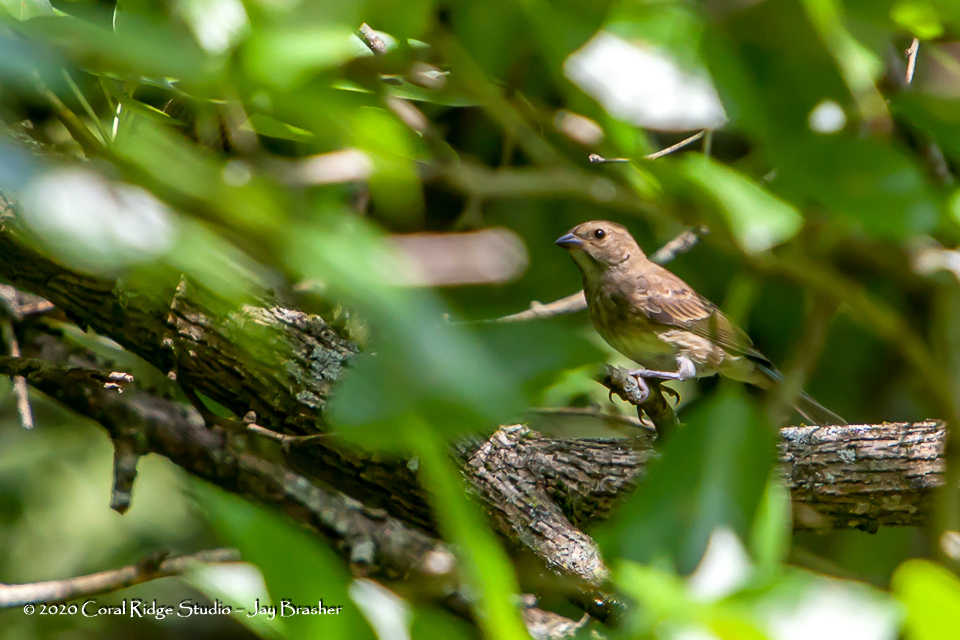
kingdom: Animalia
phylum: Chordata
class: Aves
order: Passeriformes
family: Cardinalidae
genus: Passerina
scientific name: Passerina cyanea
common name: Indigo bunting
